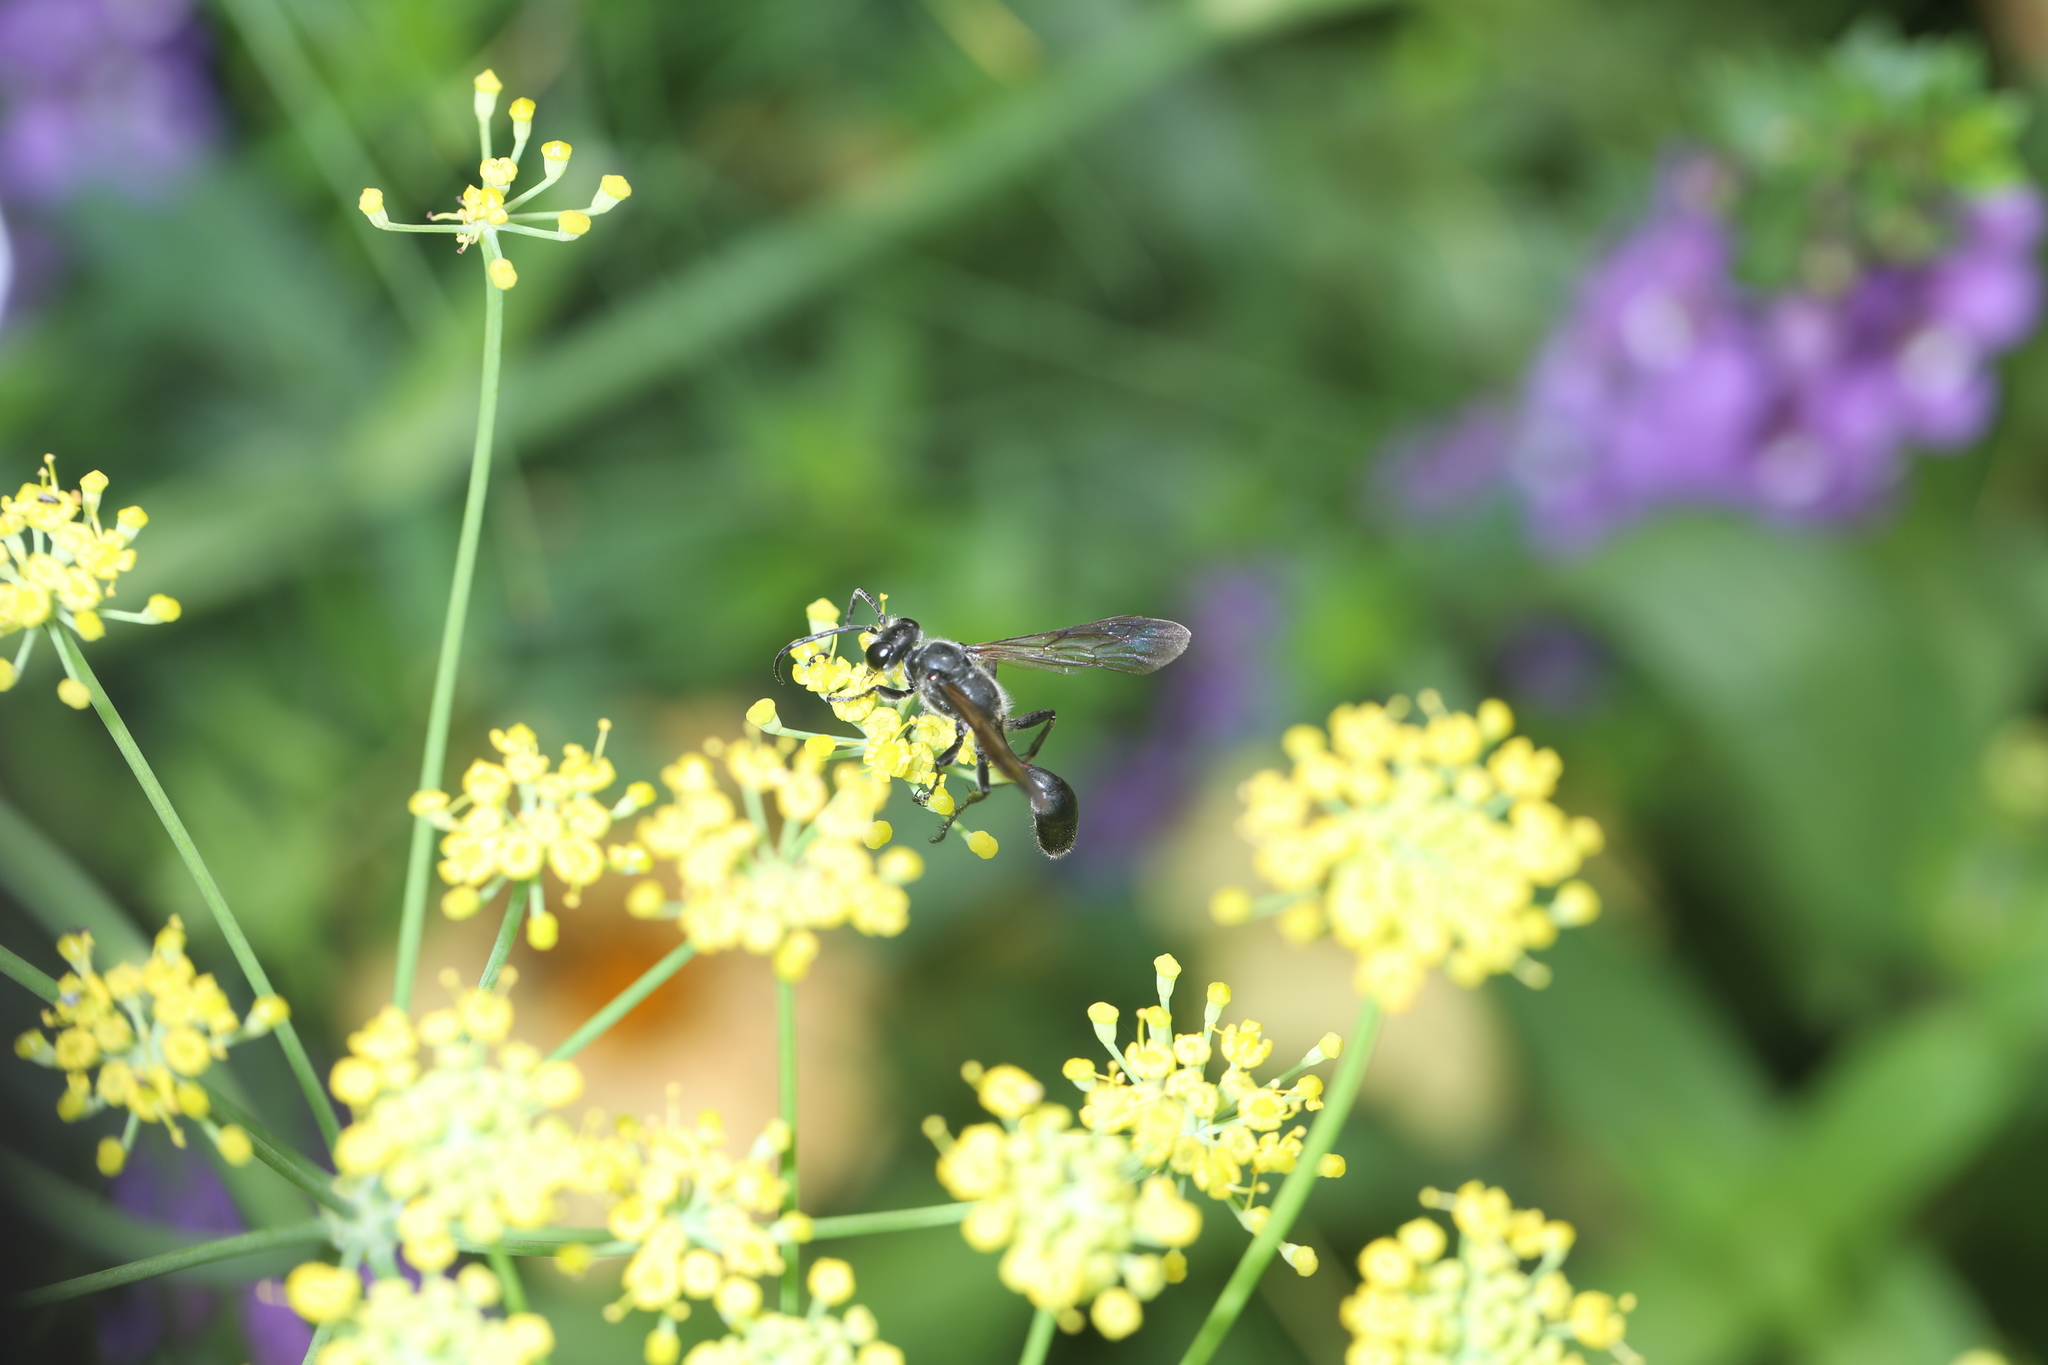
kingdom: Animalia
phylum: Arthropoda
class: Insecta
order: Hymenoptera
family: Sphecidae
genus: Isodontia
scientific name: Isodontia mexicana
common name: Mud dauber
